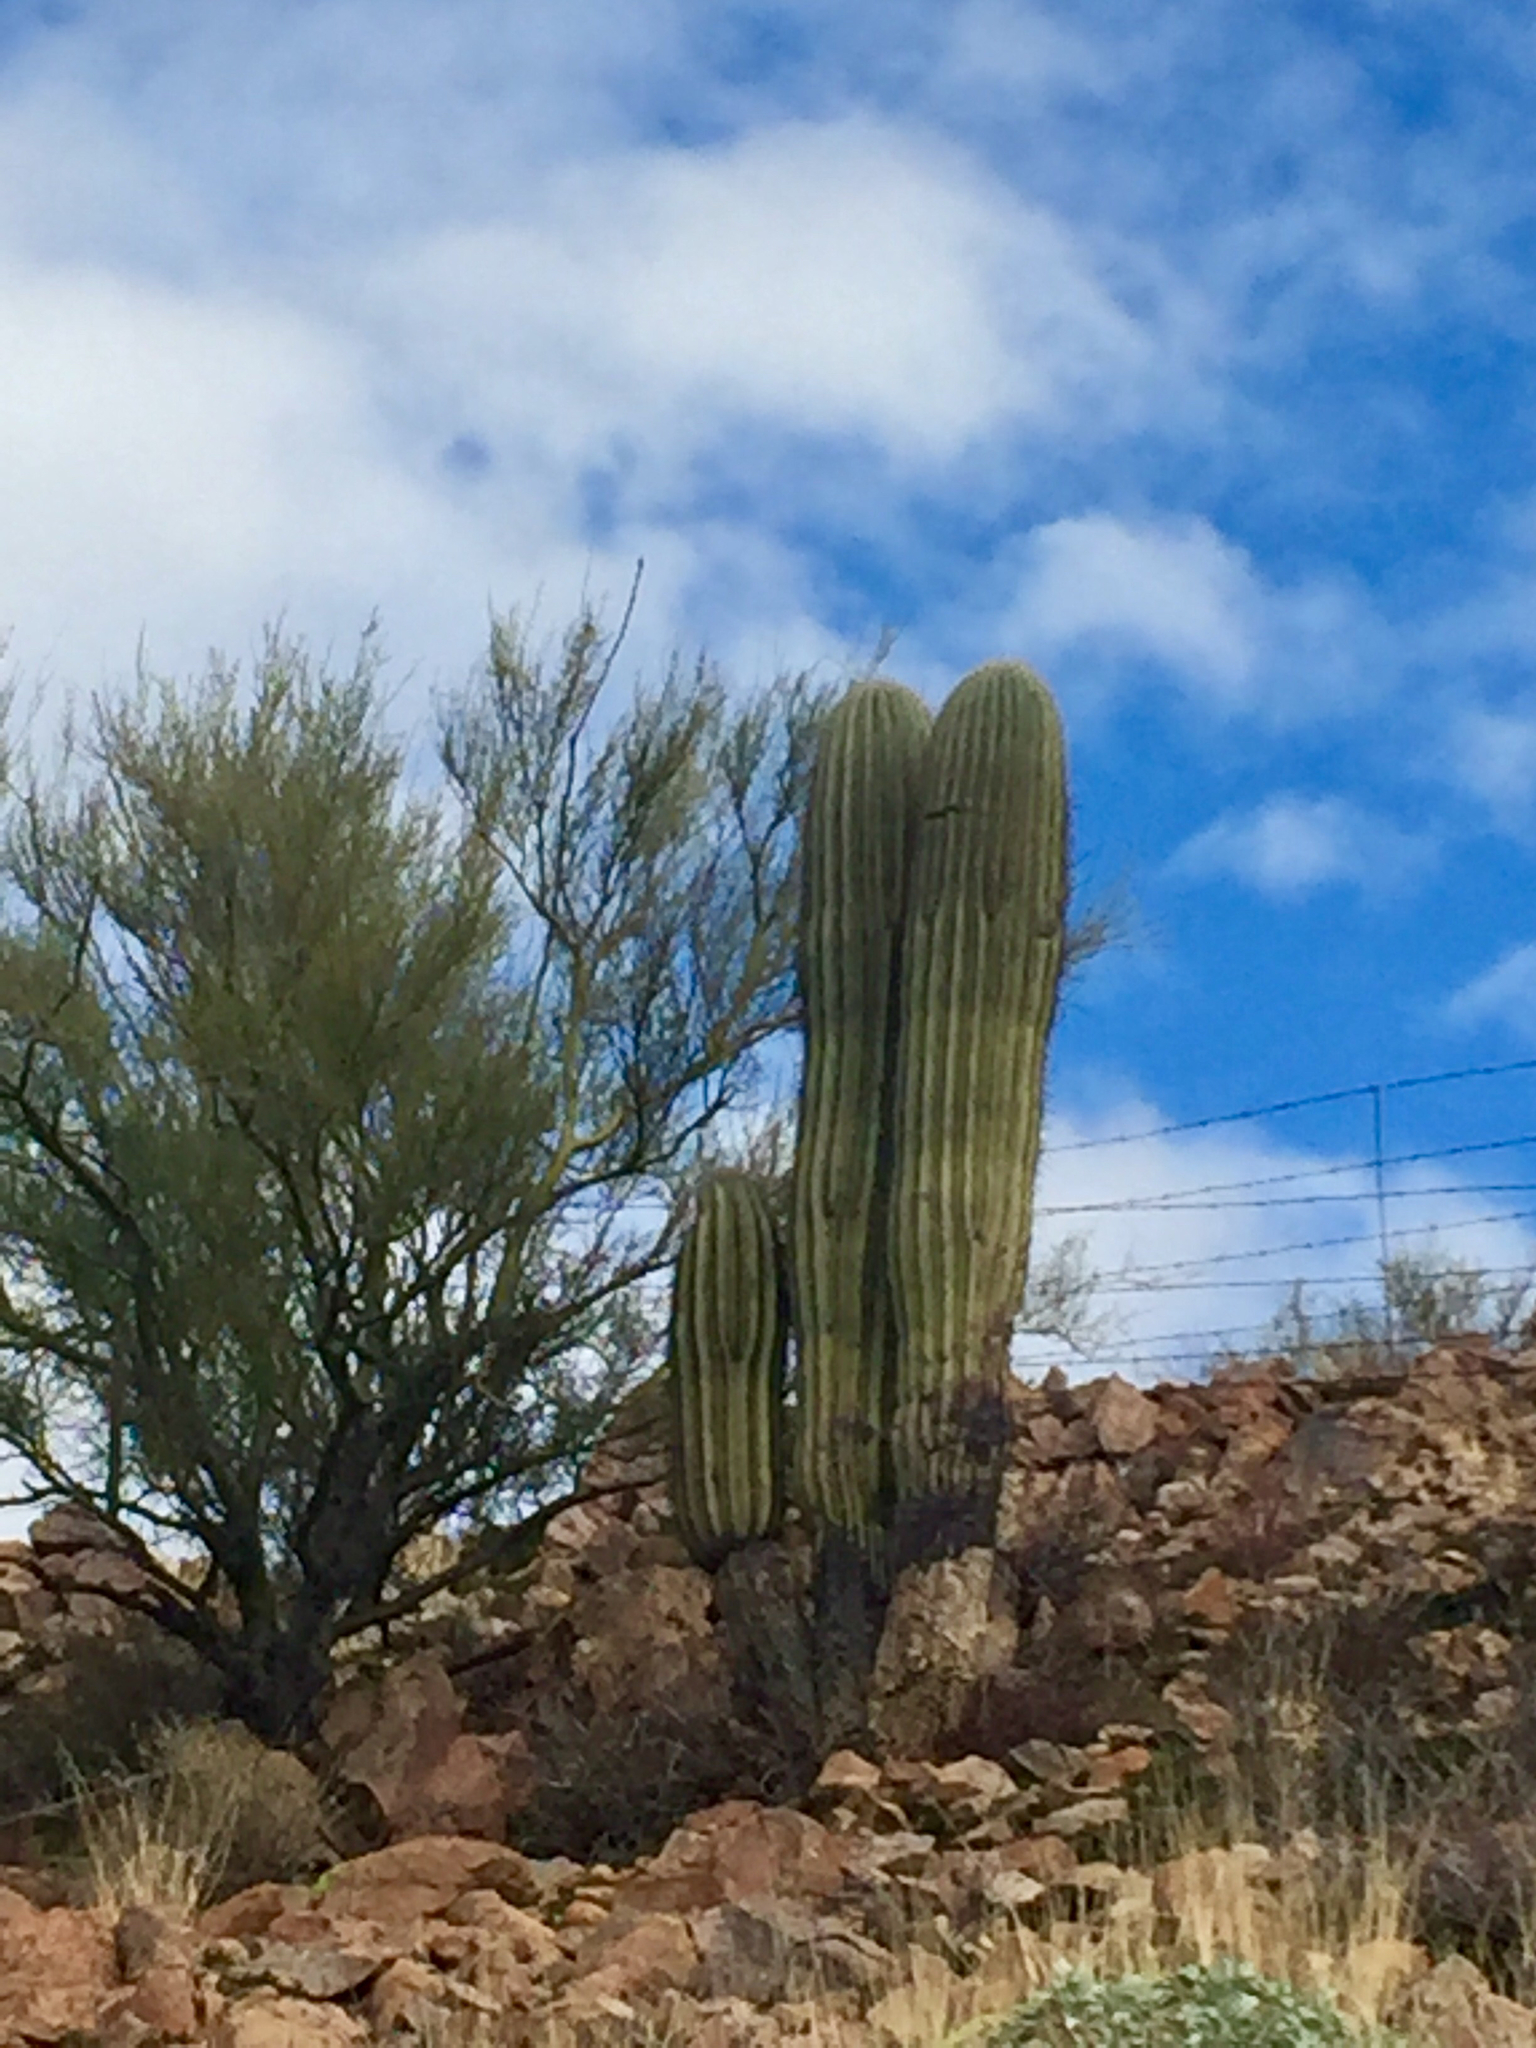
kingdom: Plantae
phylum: Tracheophyta
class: Magnoliopsida
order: Caryophyllales
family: Cactaceae
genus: Carnegiea
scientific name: Carnegiea gigantea
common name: Saguaro
